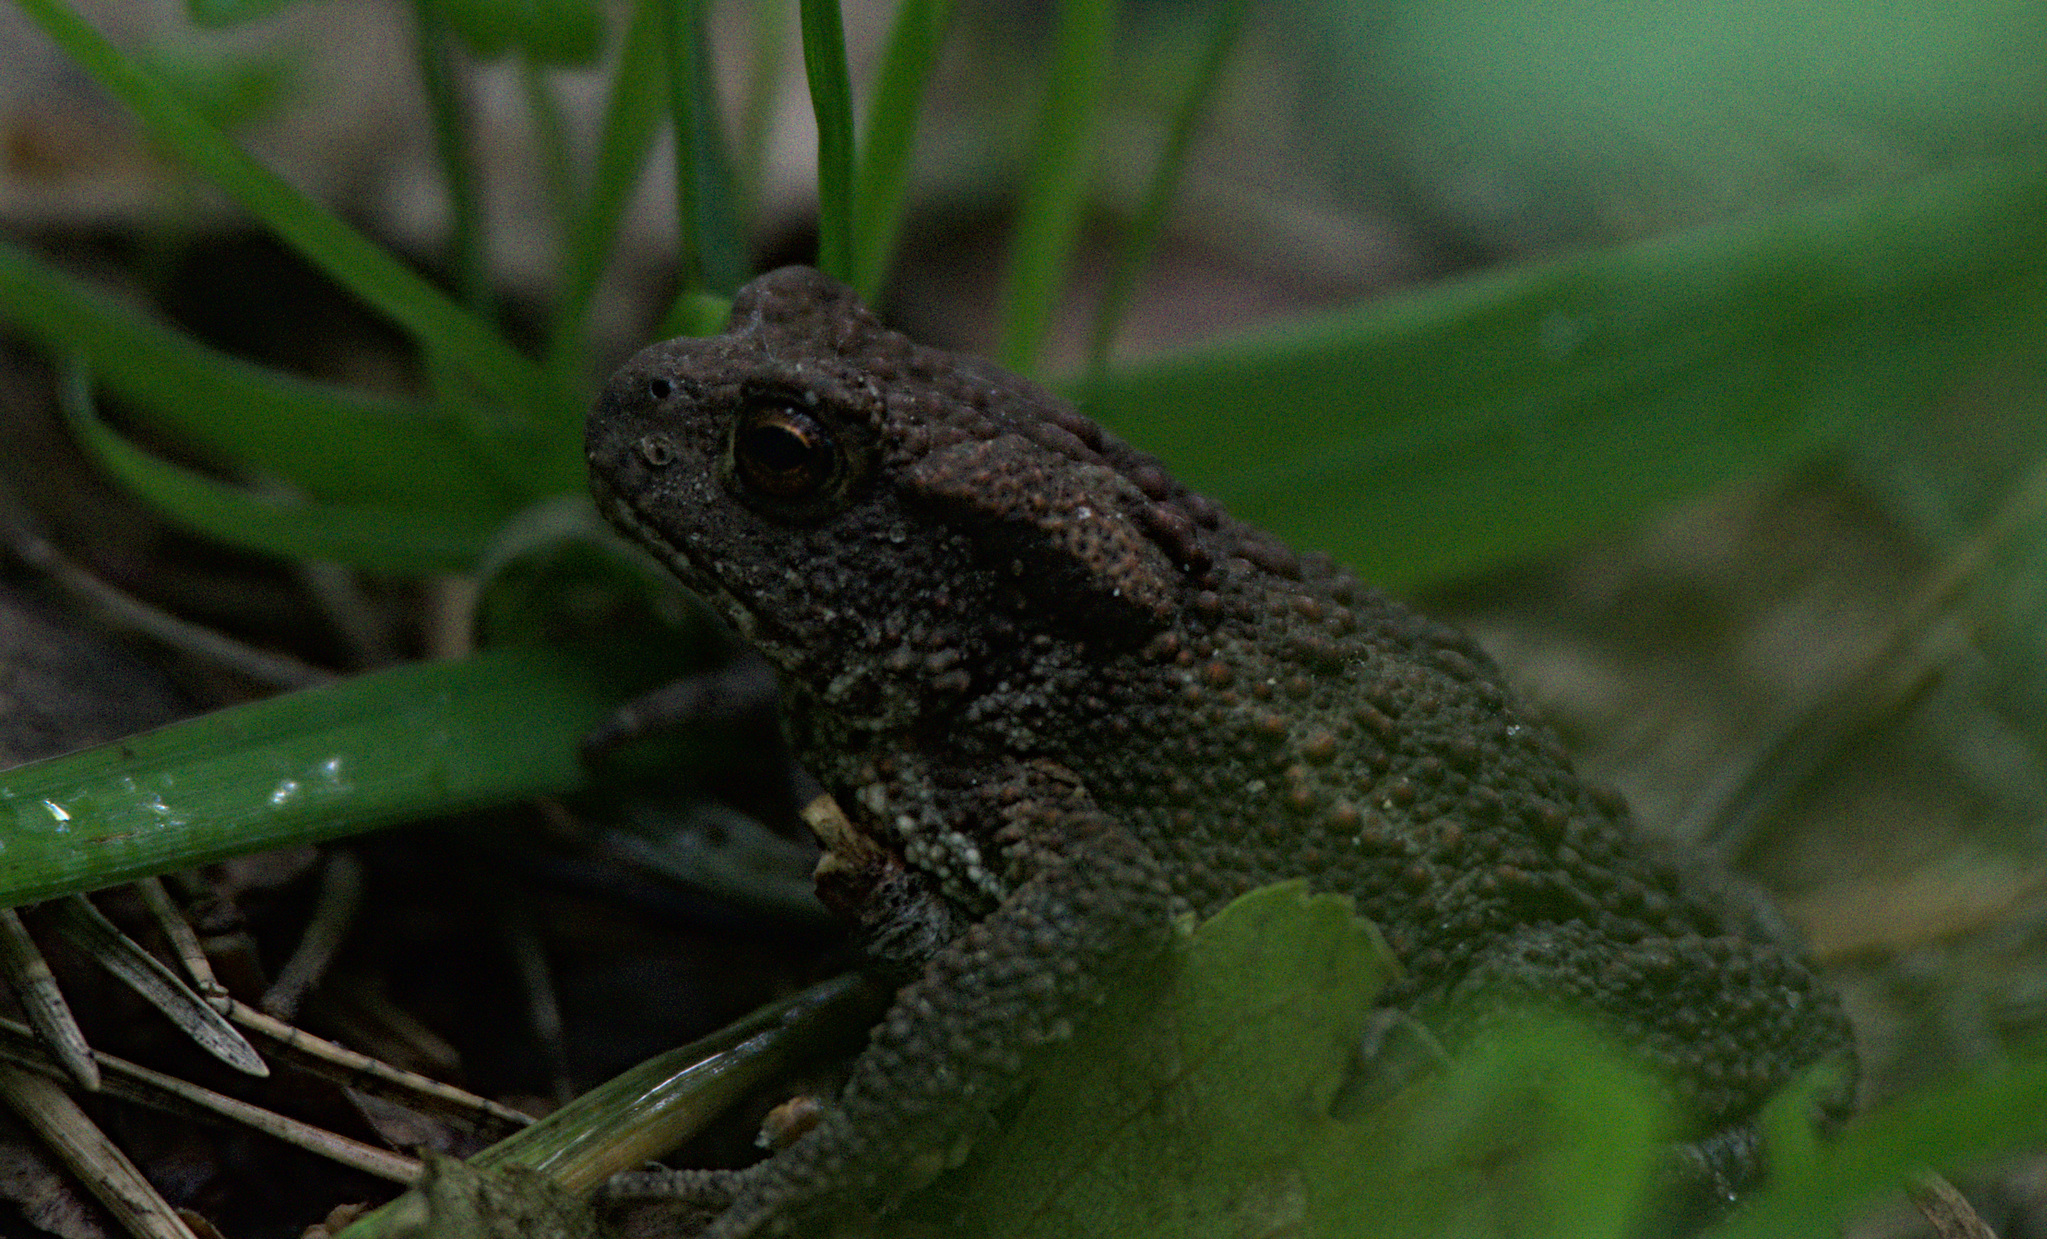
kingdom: Animalia
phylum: Chordata
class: Amphibia
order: Anura
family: Bufonidae
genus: Bufo
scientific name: Bufo bufo
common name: Common toad
